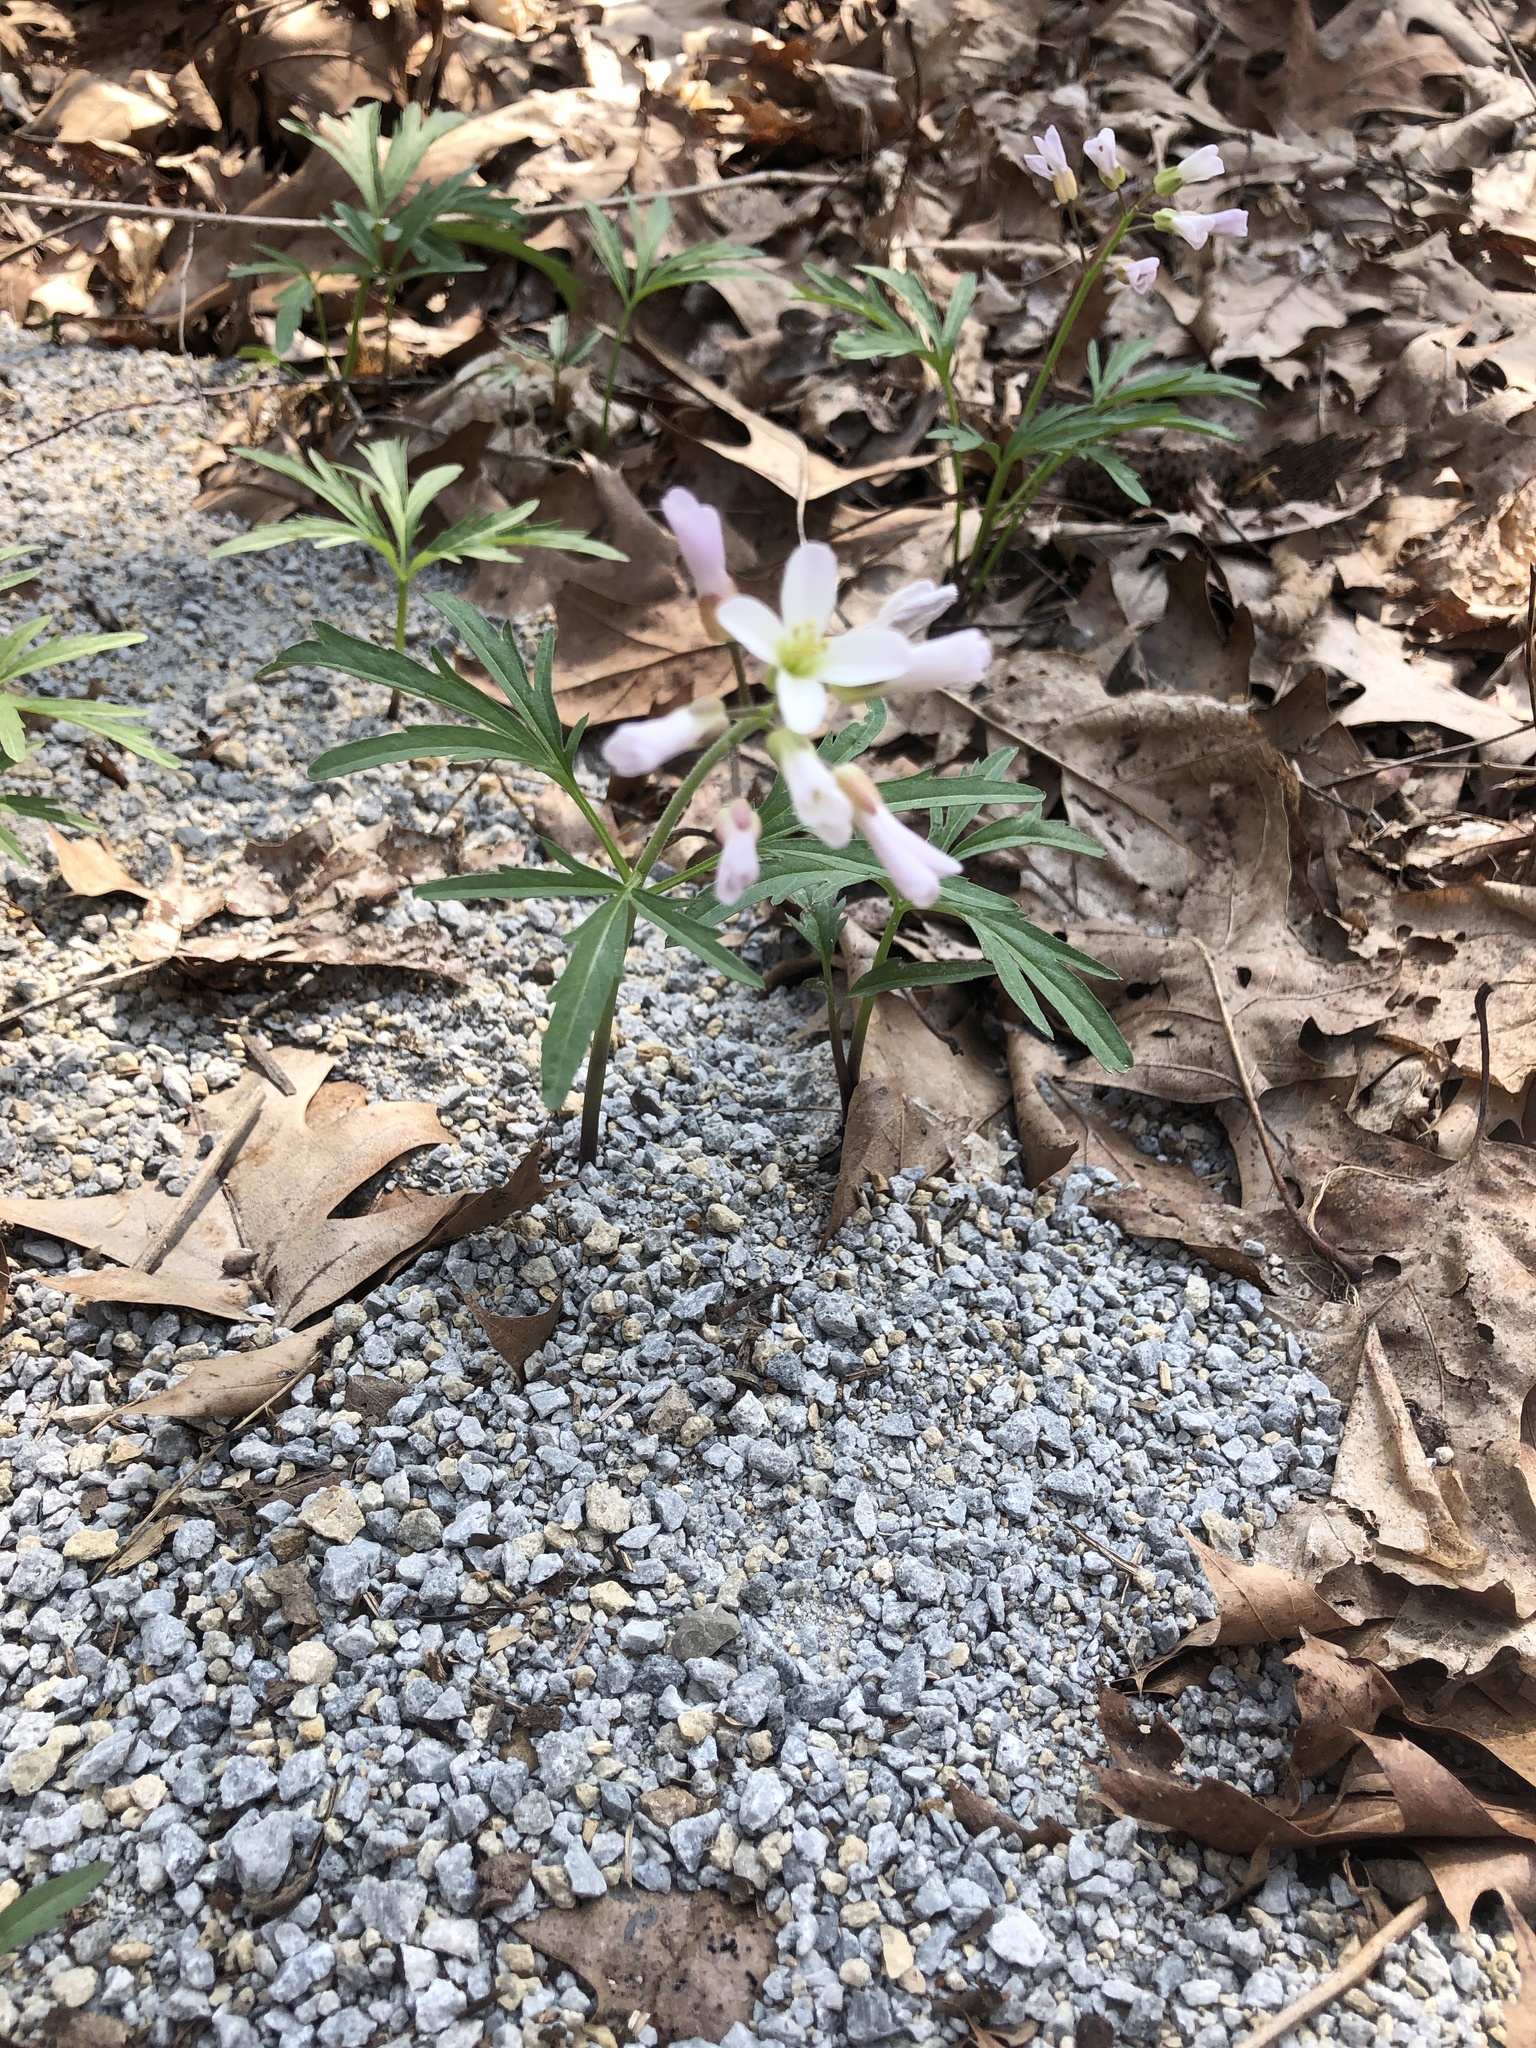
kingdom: Plantae
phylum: Tracheophyta
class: Magnoliopsida
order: Brassicales
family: Brassicaceae
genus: Cardamine
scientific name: Cardamine concatenata
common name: Cut-leaf toothcup
